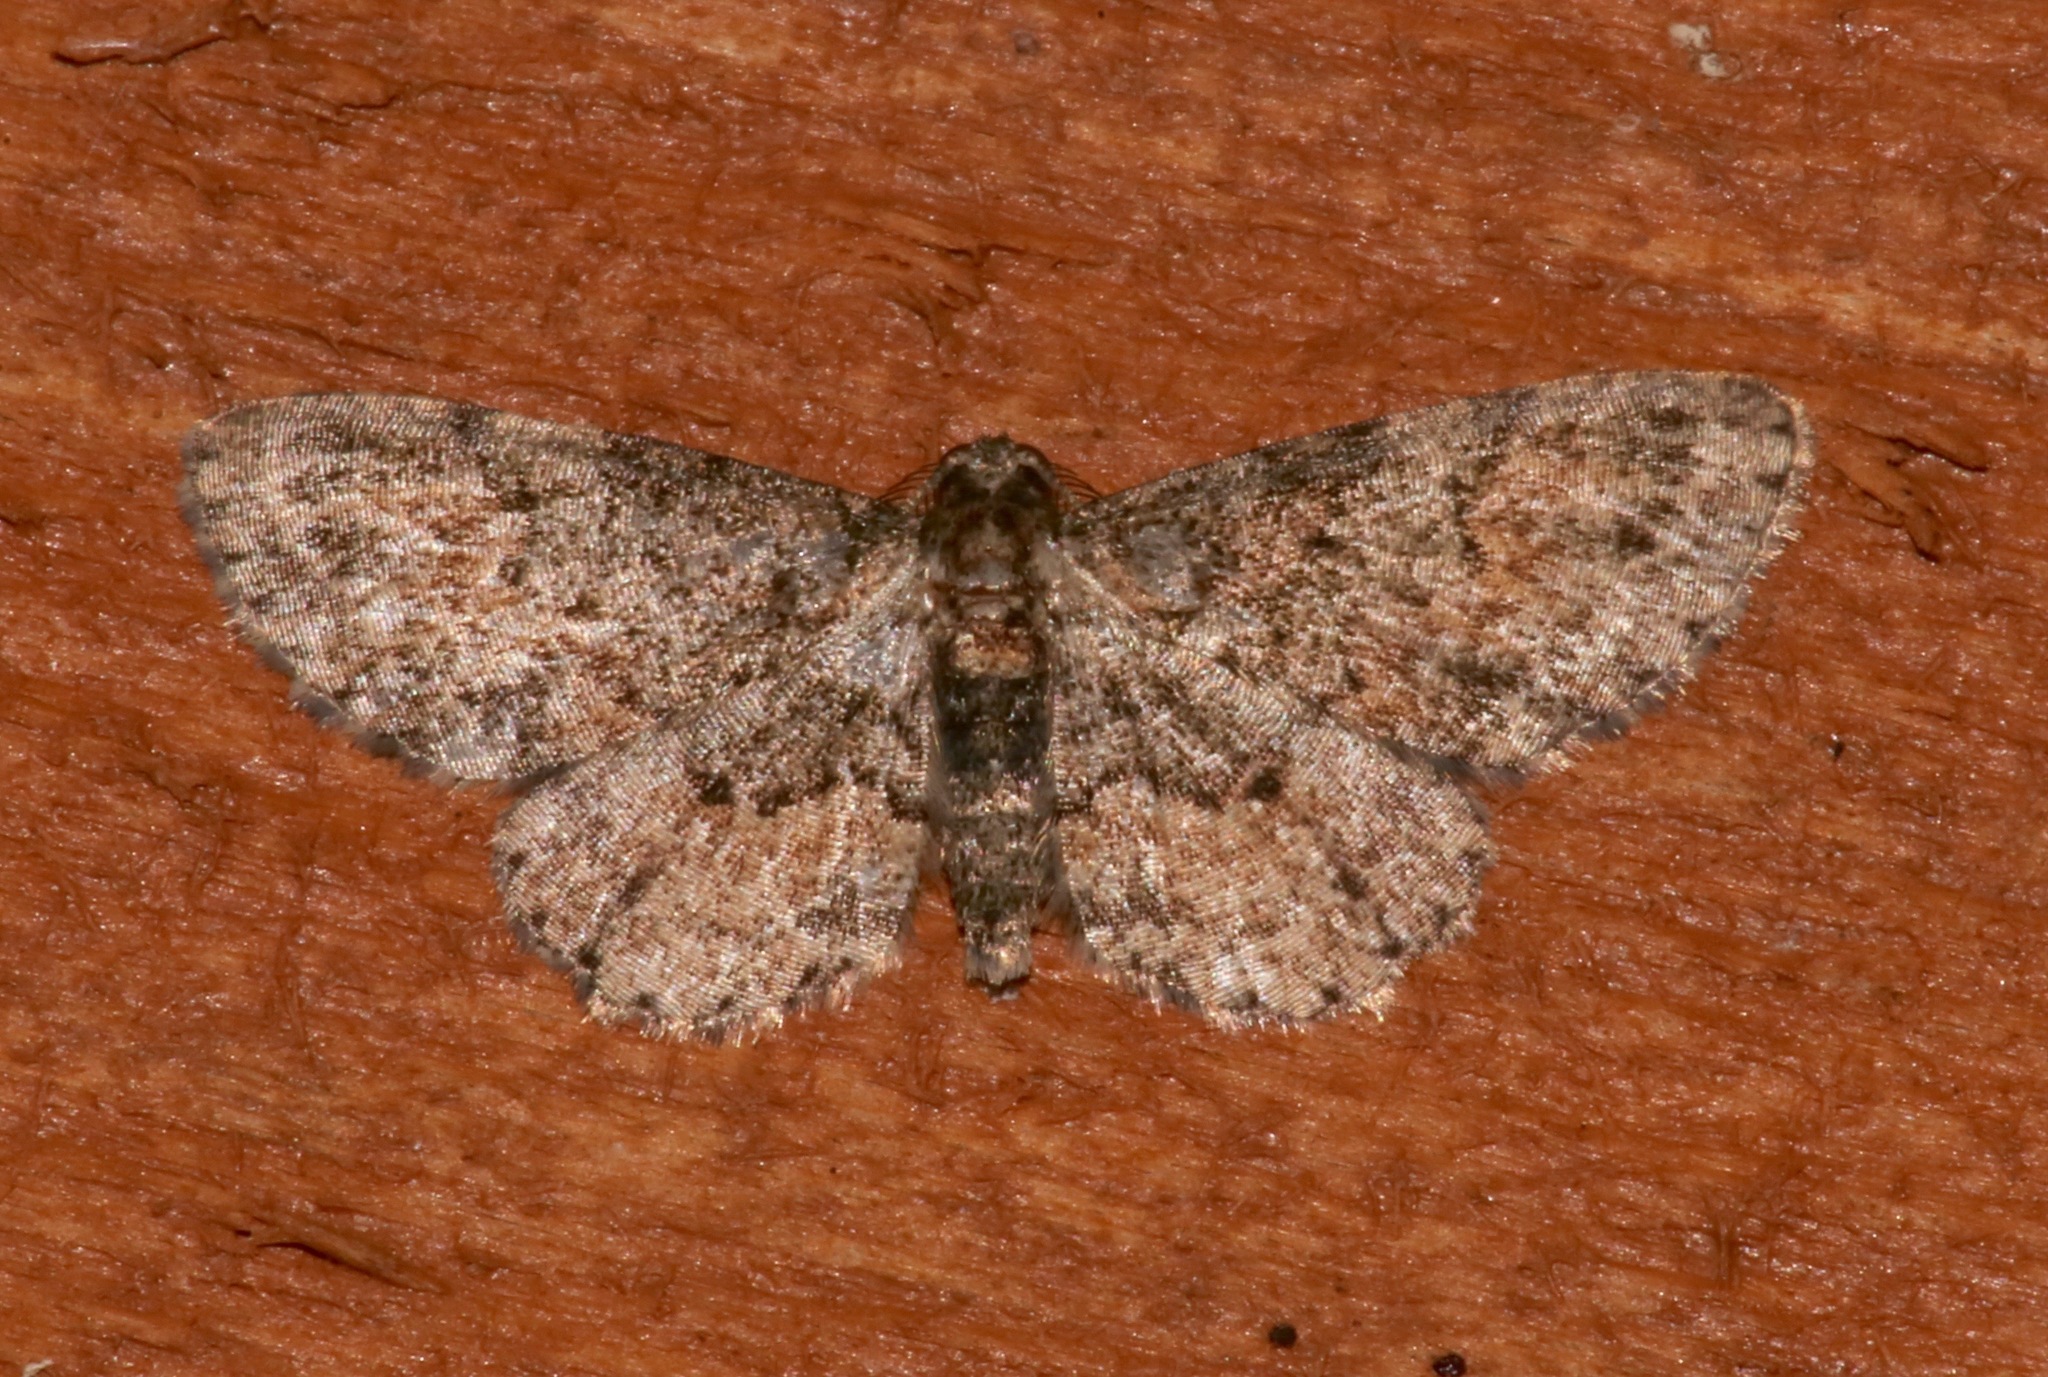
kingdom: Animalia
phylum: Arthropoda
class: Insecta
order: Lepidoptera
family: Geometridae
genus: Glenoides
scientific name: Glenoides texanaria
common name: Texas gray
